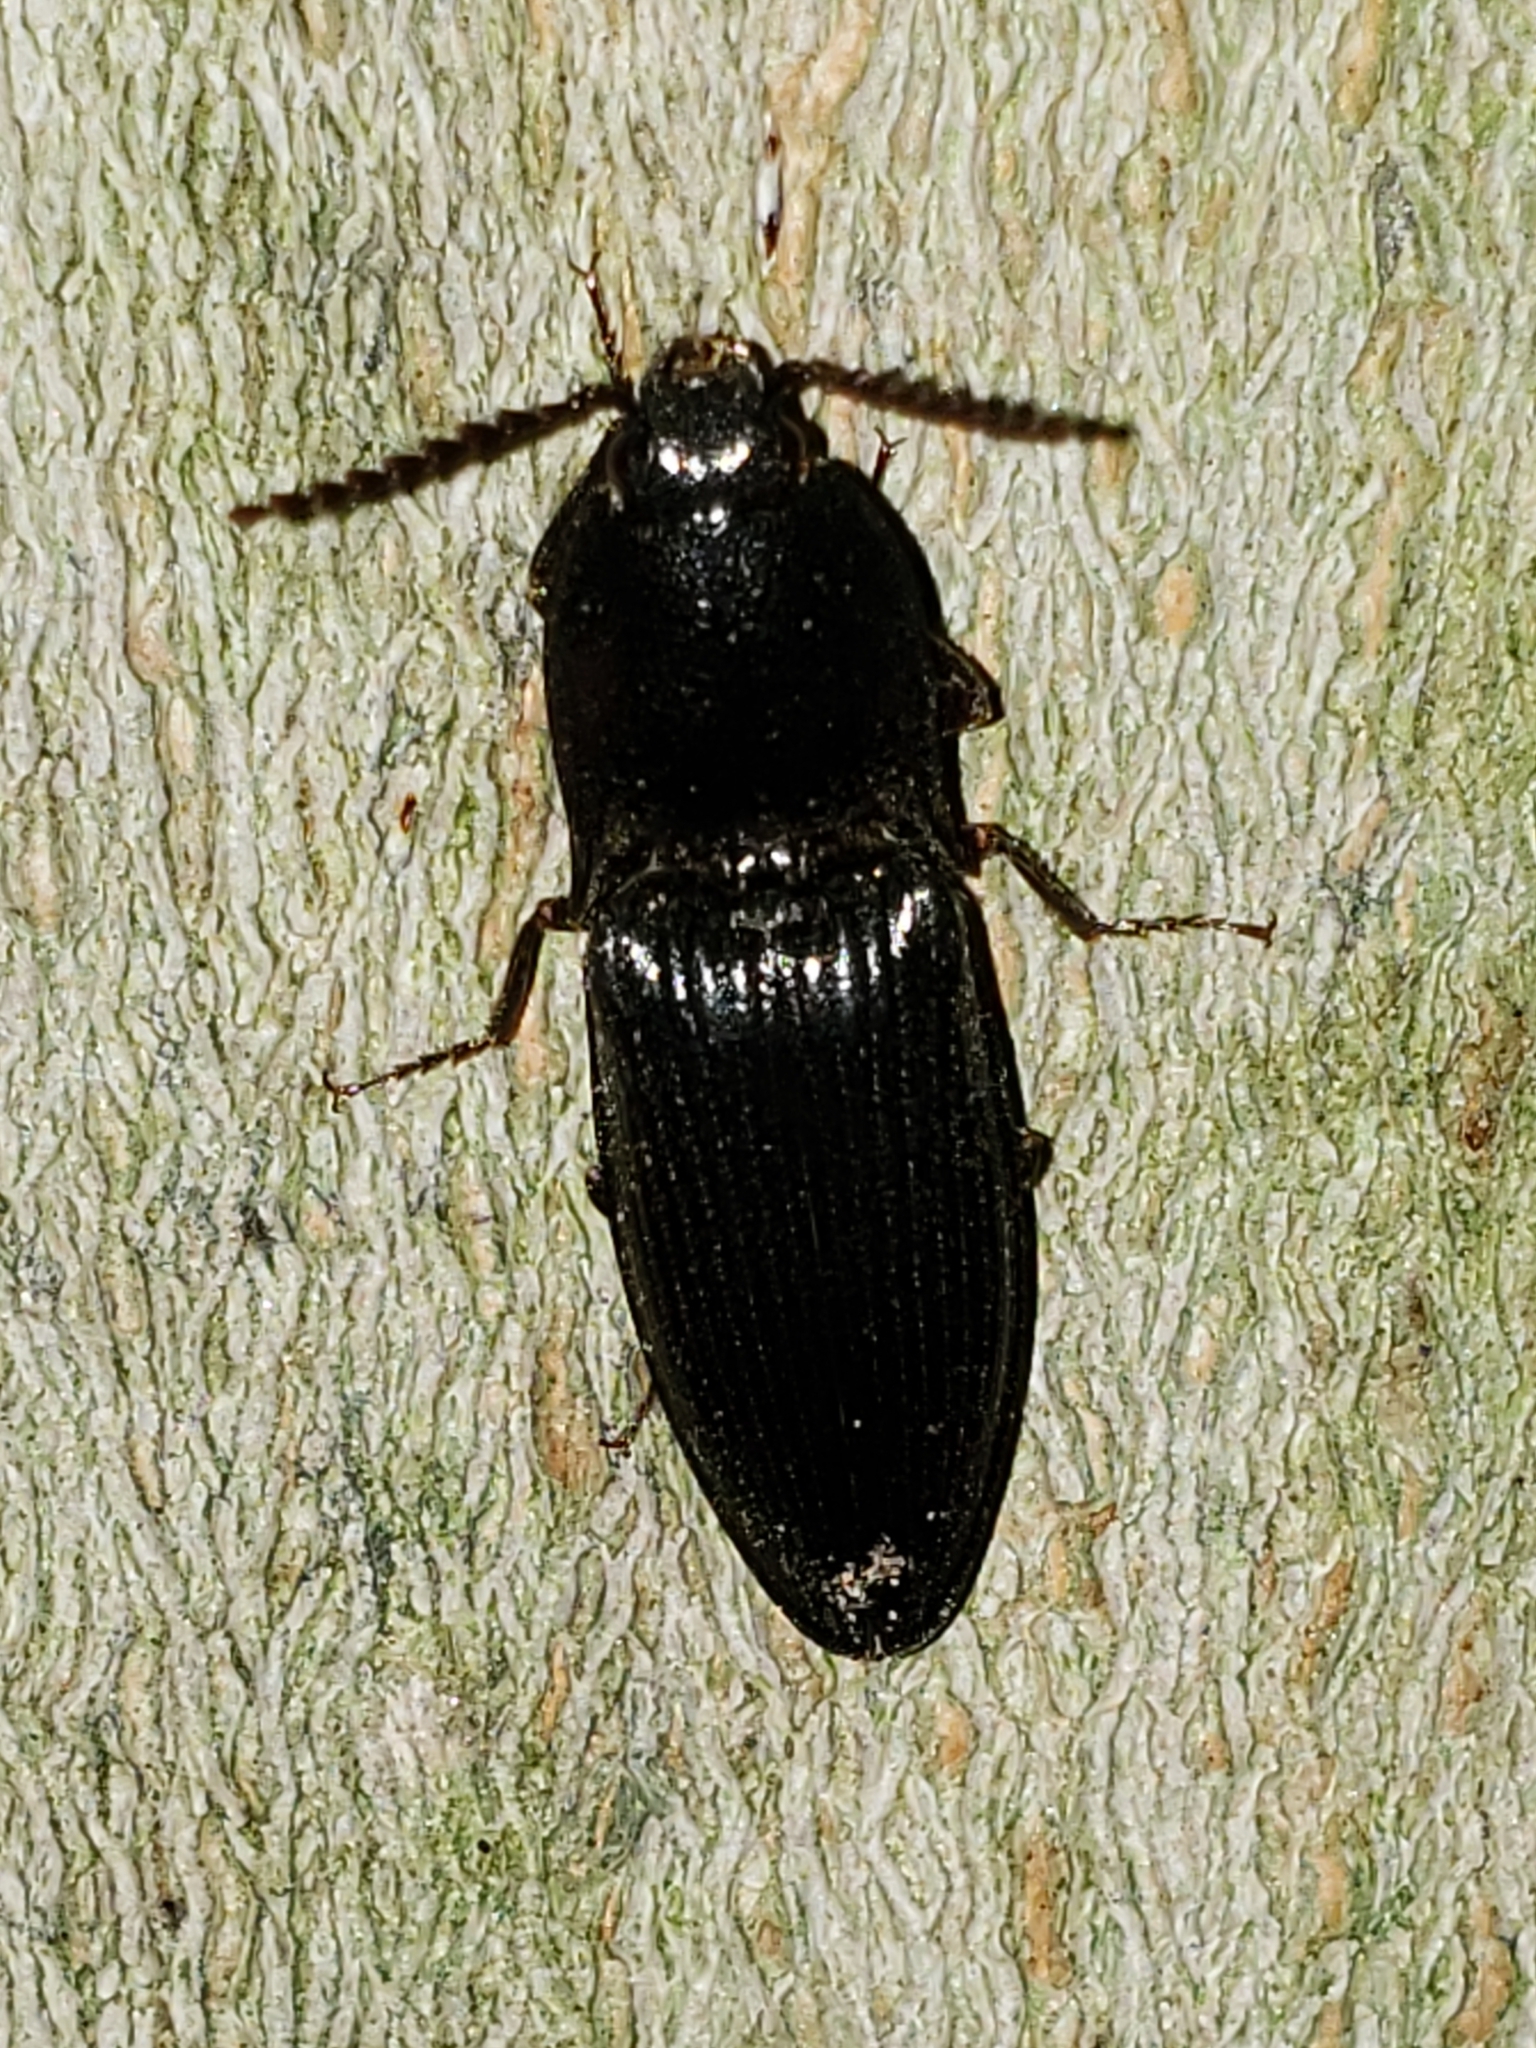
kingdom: Animalia
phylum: Arthropoda
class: Insecta
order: Coleoptera
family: Elateridae
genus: Neopristilophus
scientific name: Neopristilophus
